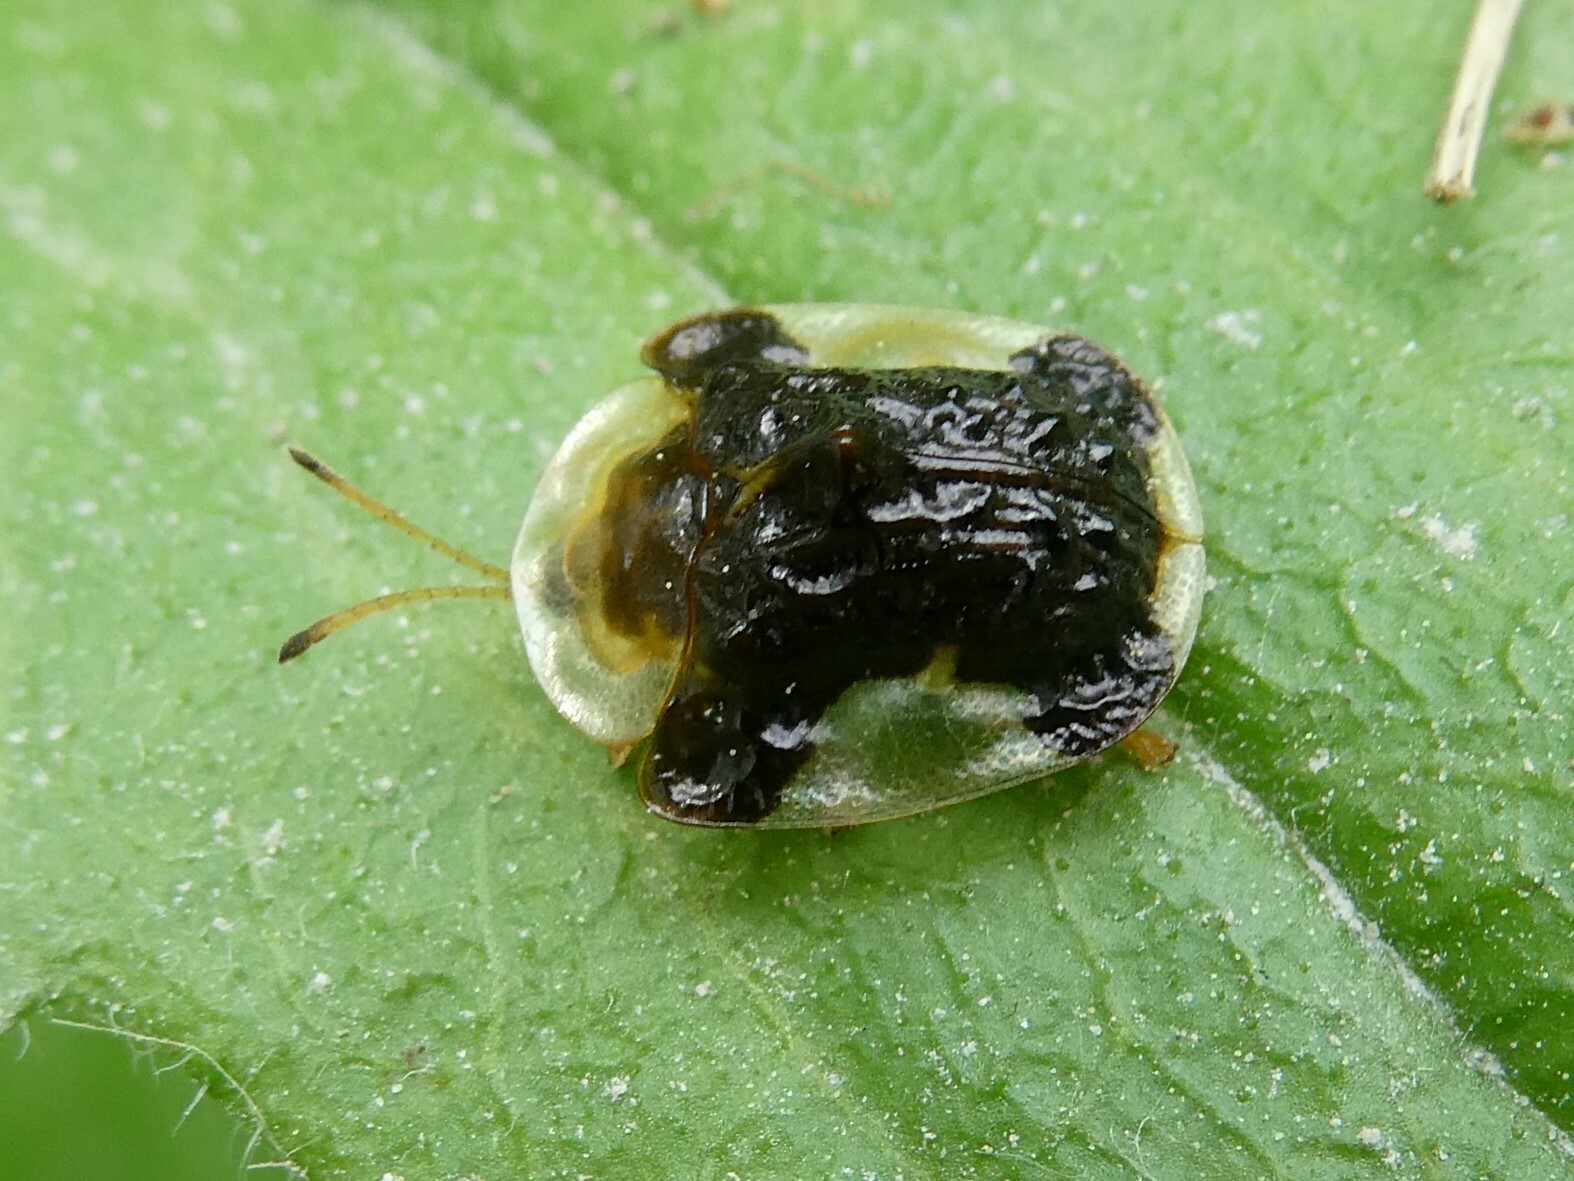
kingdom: Animalia
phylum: Arthropoda
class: Insecta
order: Coleoptera
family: Chrysomelidae
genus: Helocassis
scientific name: Helocassis clavata
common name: Clavate tortoise beetle
